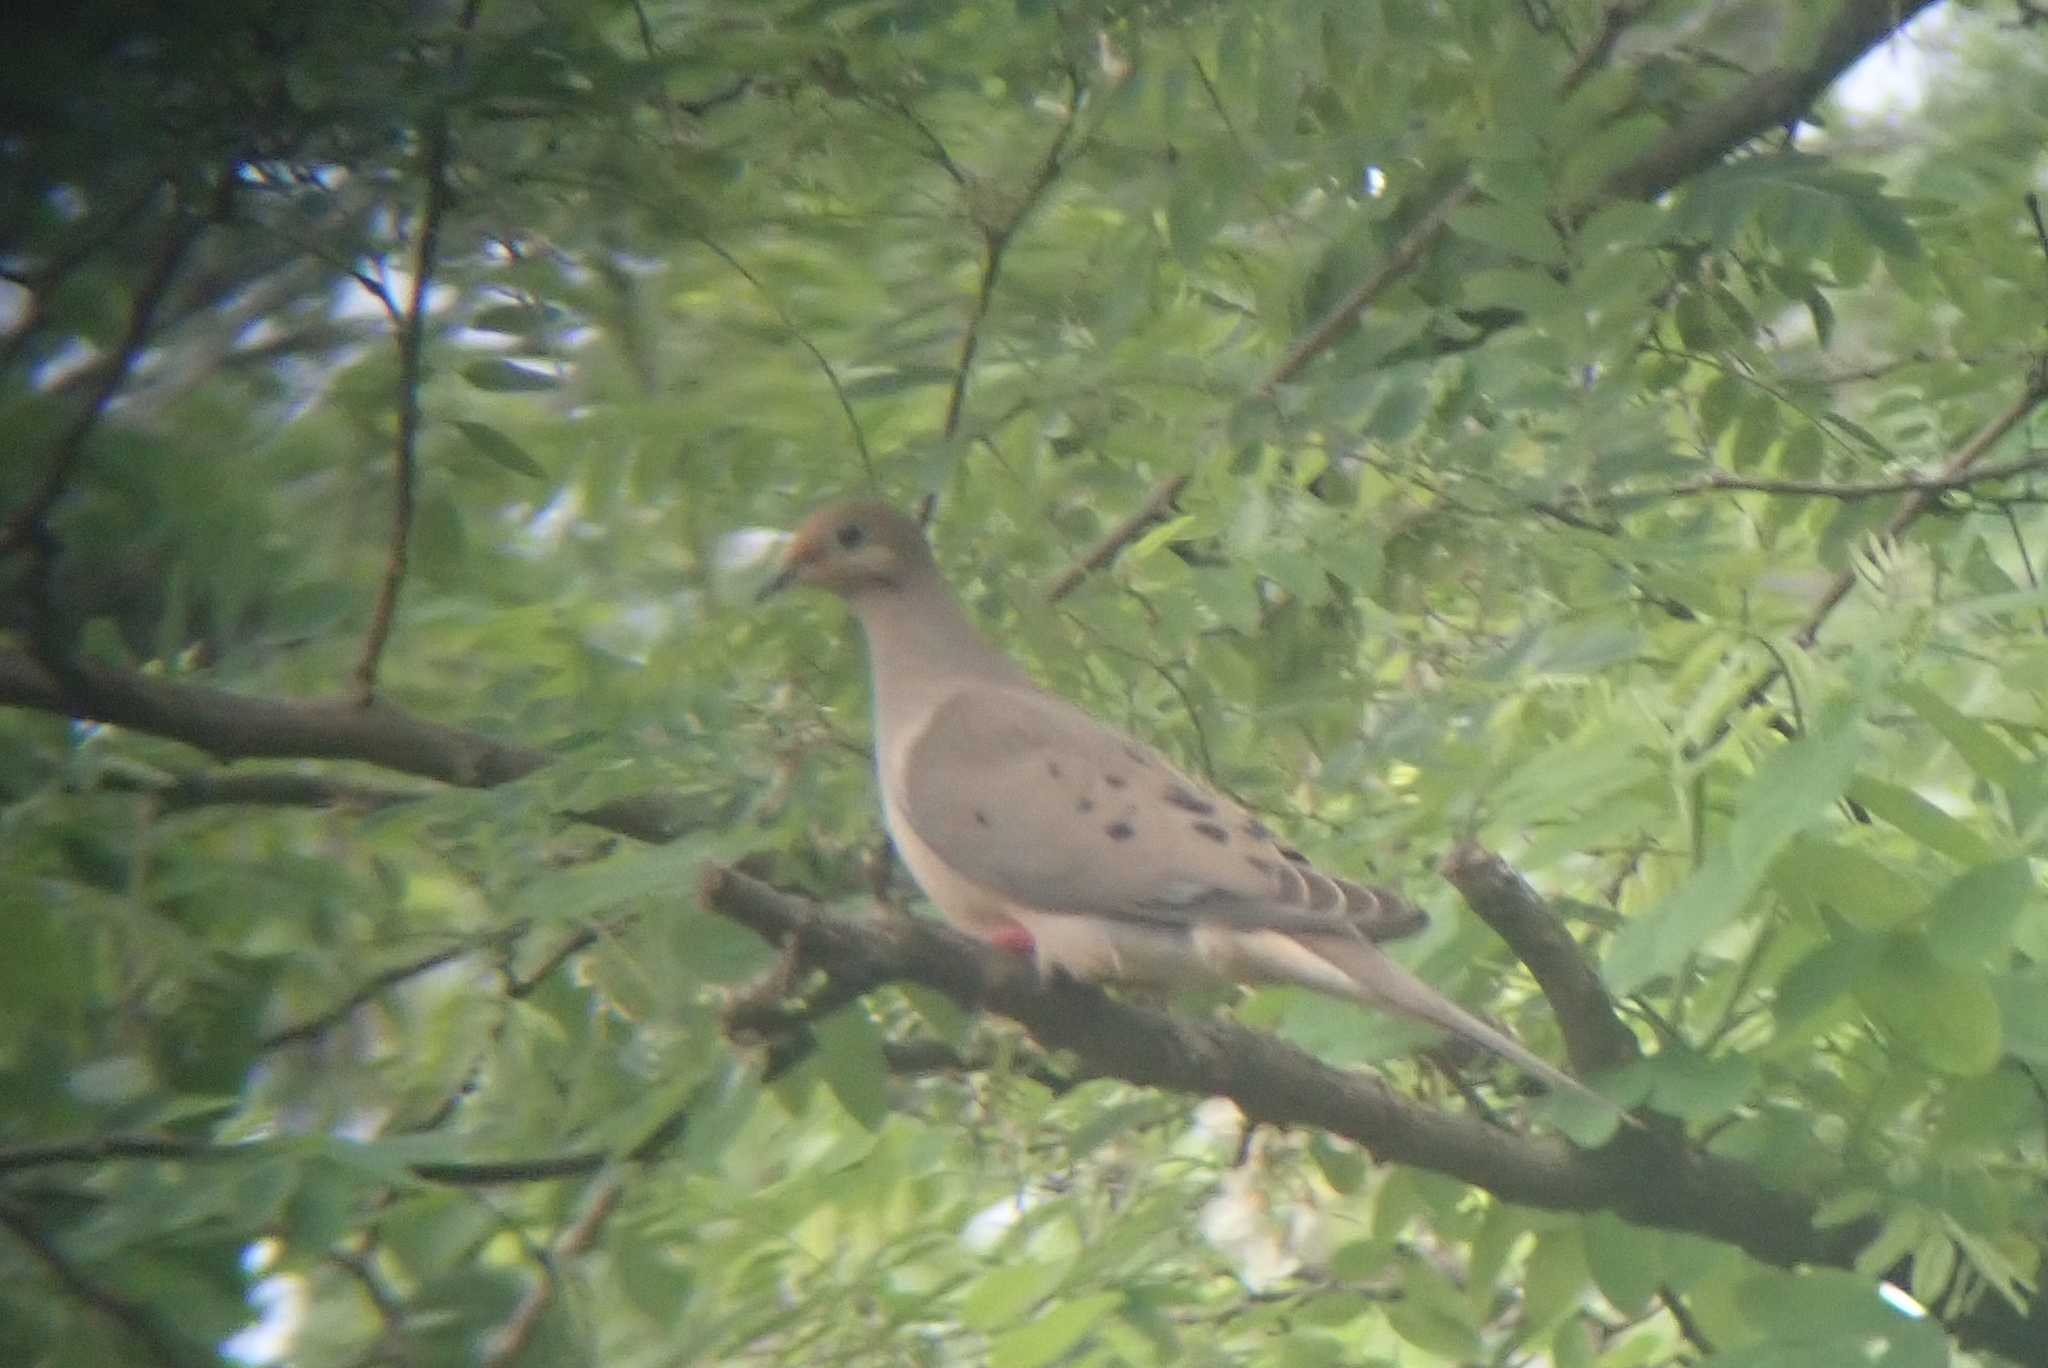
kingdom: Animalia
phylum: Chordata
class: Aves
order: Columbiformes
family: Columbidae
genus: Zenaida
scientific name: Zenaida macroura
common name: Mourning dove
